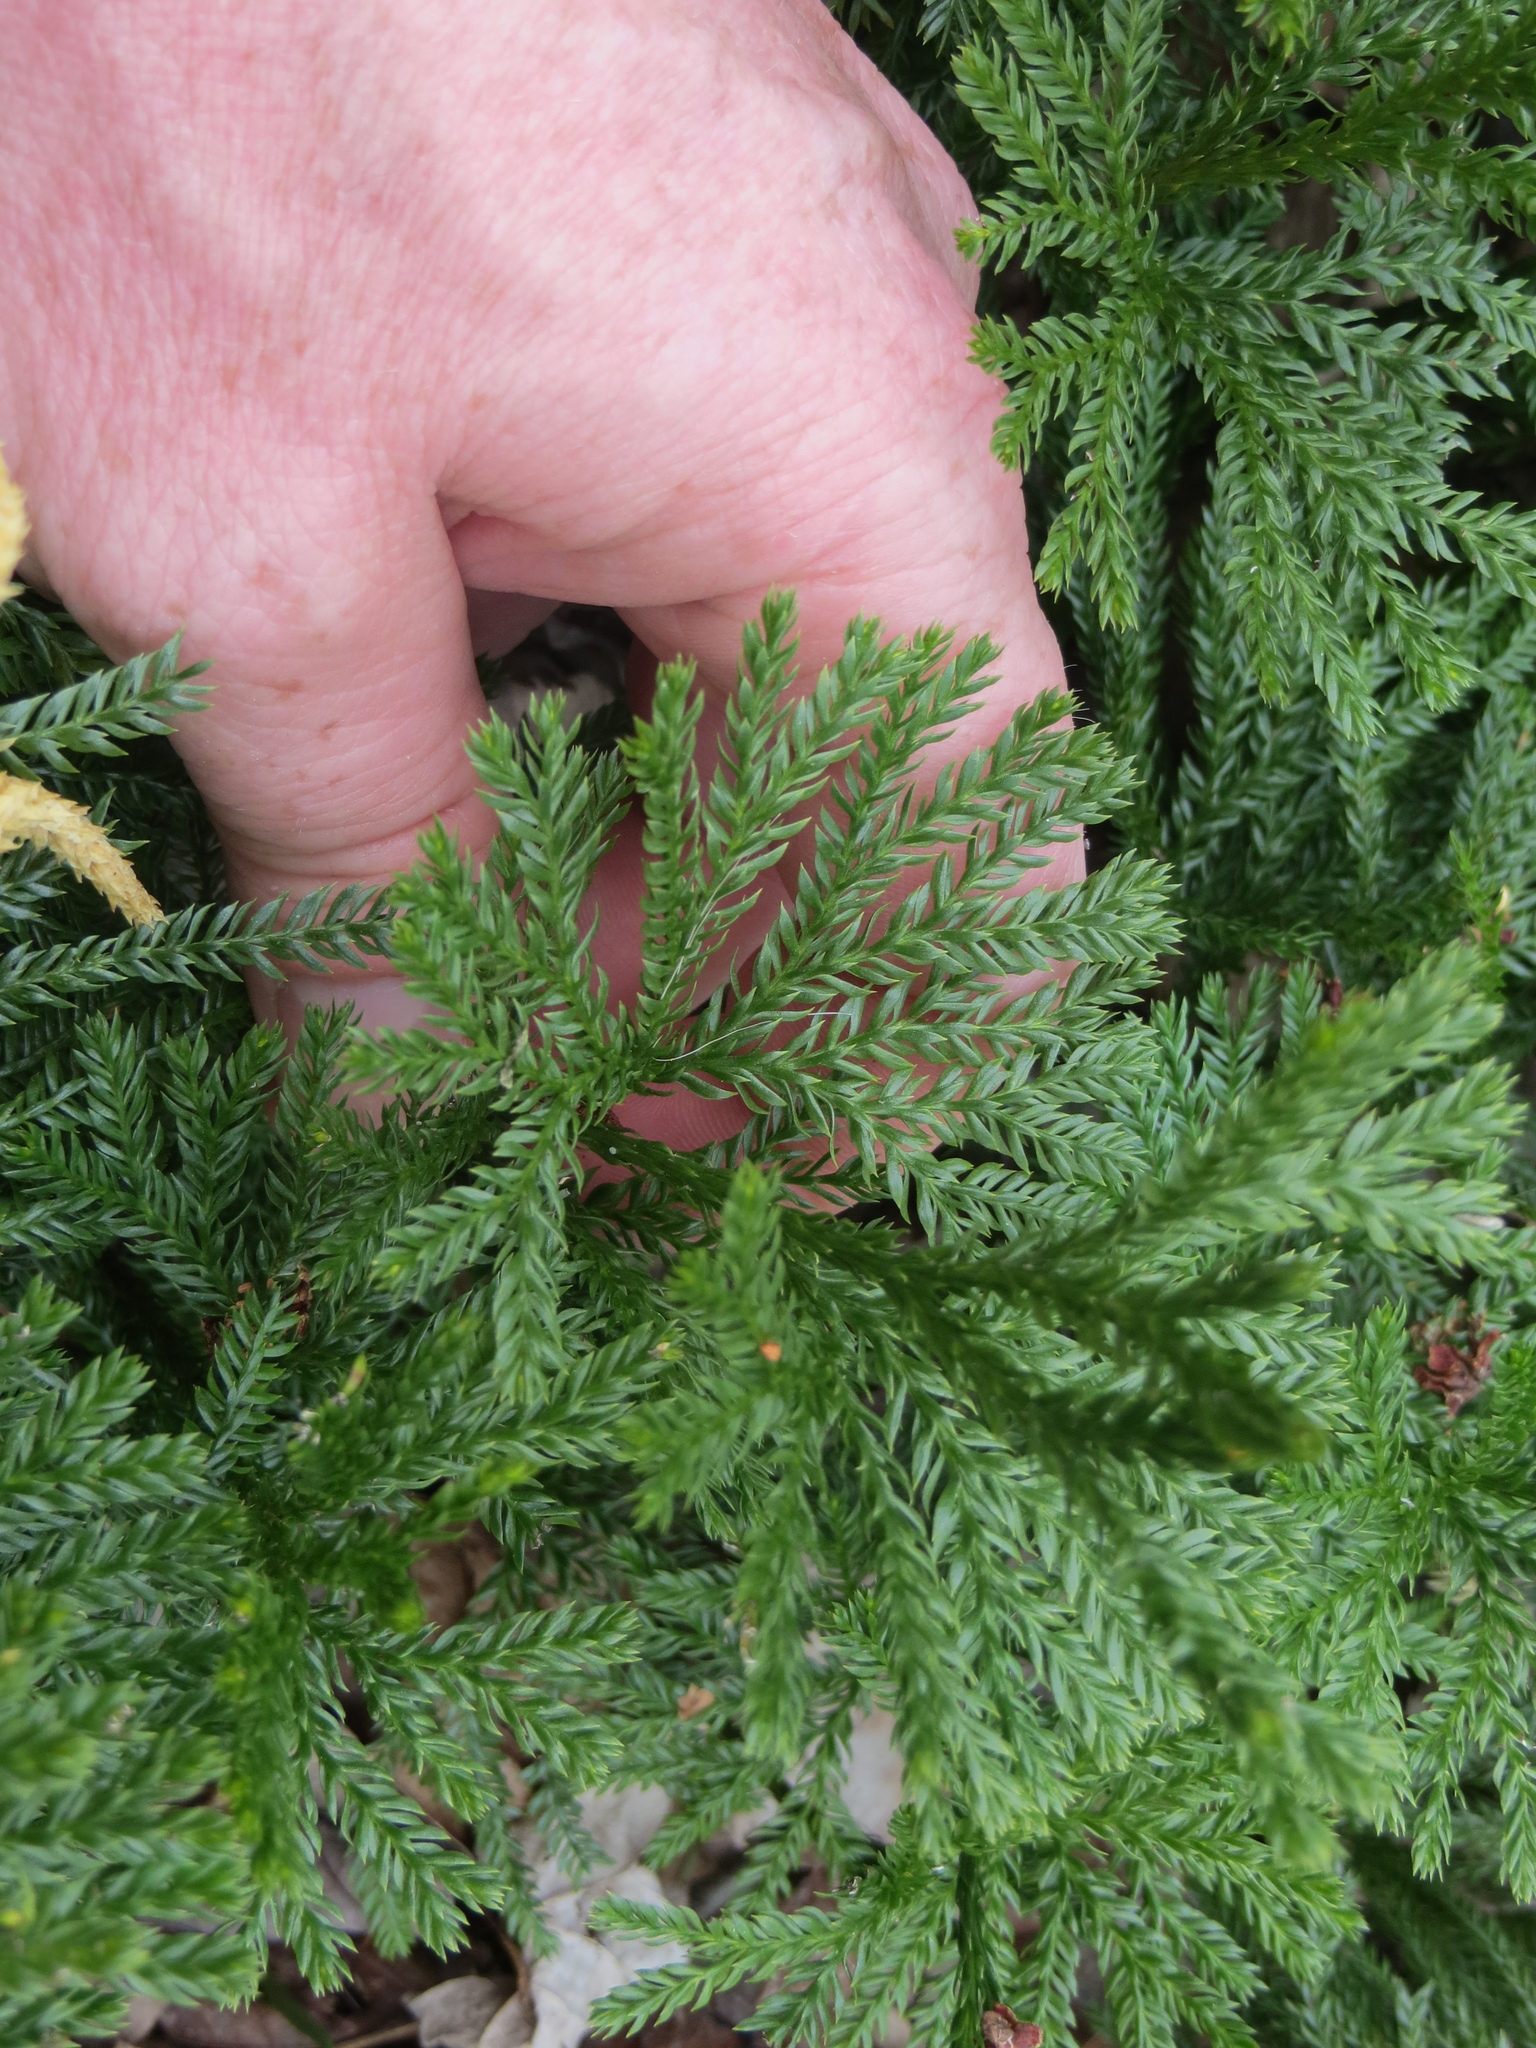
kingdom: Plantae
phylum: Tracheophyta
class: Lycopodiopsida
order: Lycopodiales
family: Lycopodiaceae
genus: Dendrolycopodium
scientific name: Dendrolycopodium obscurum
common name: Common ground-pine
